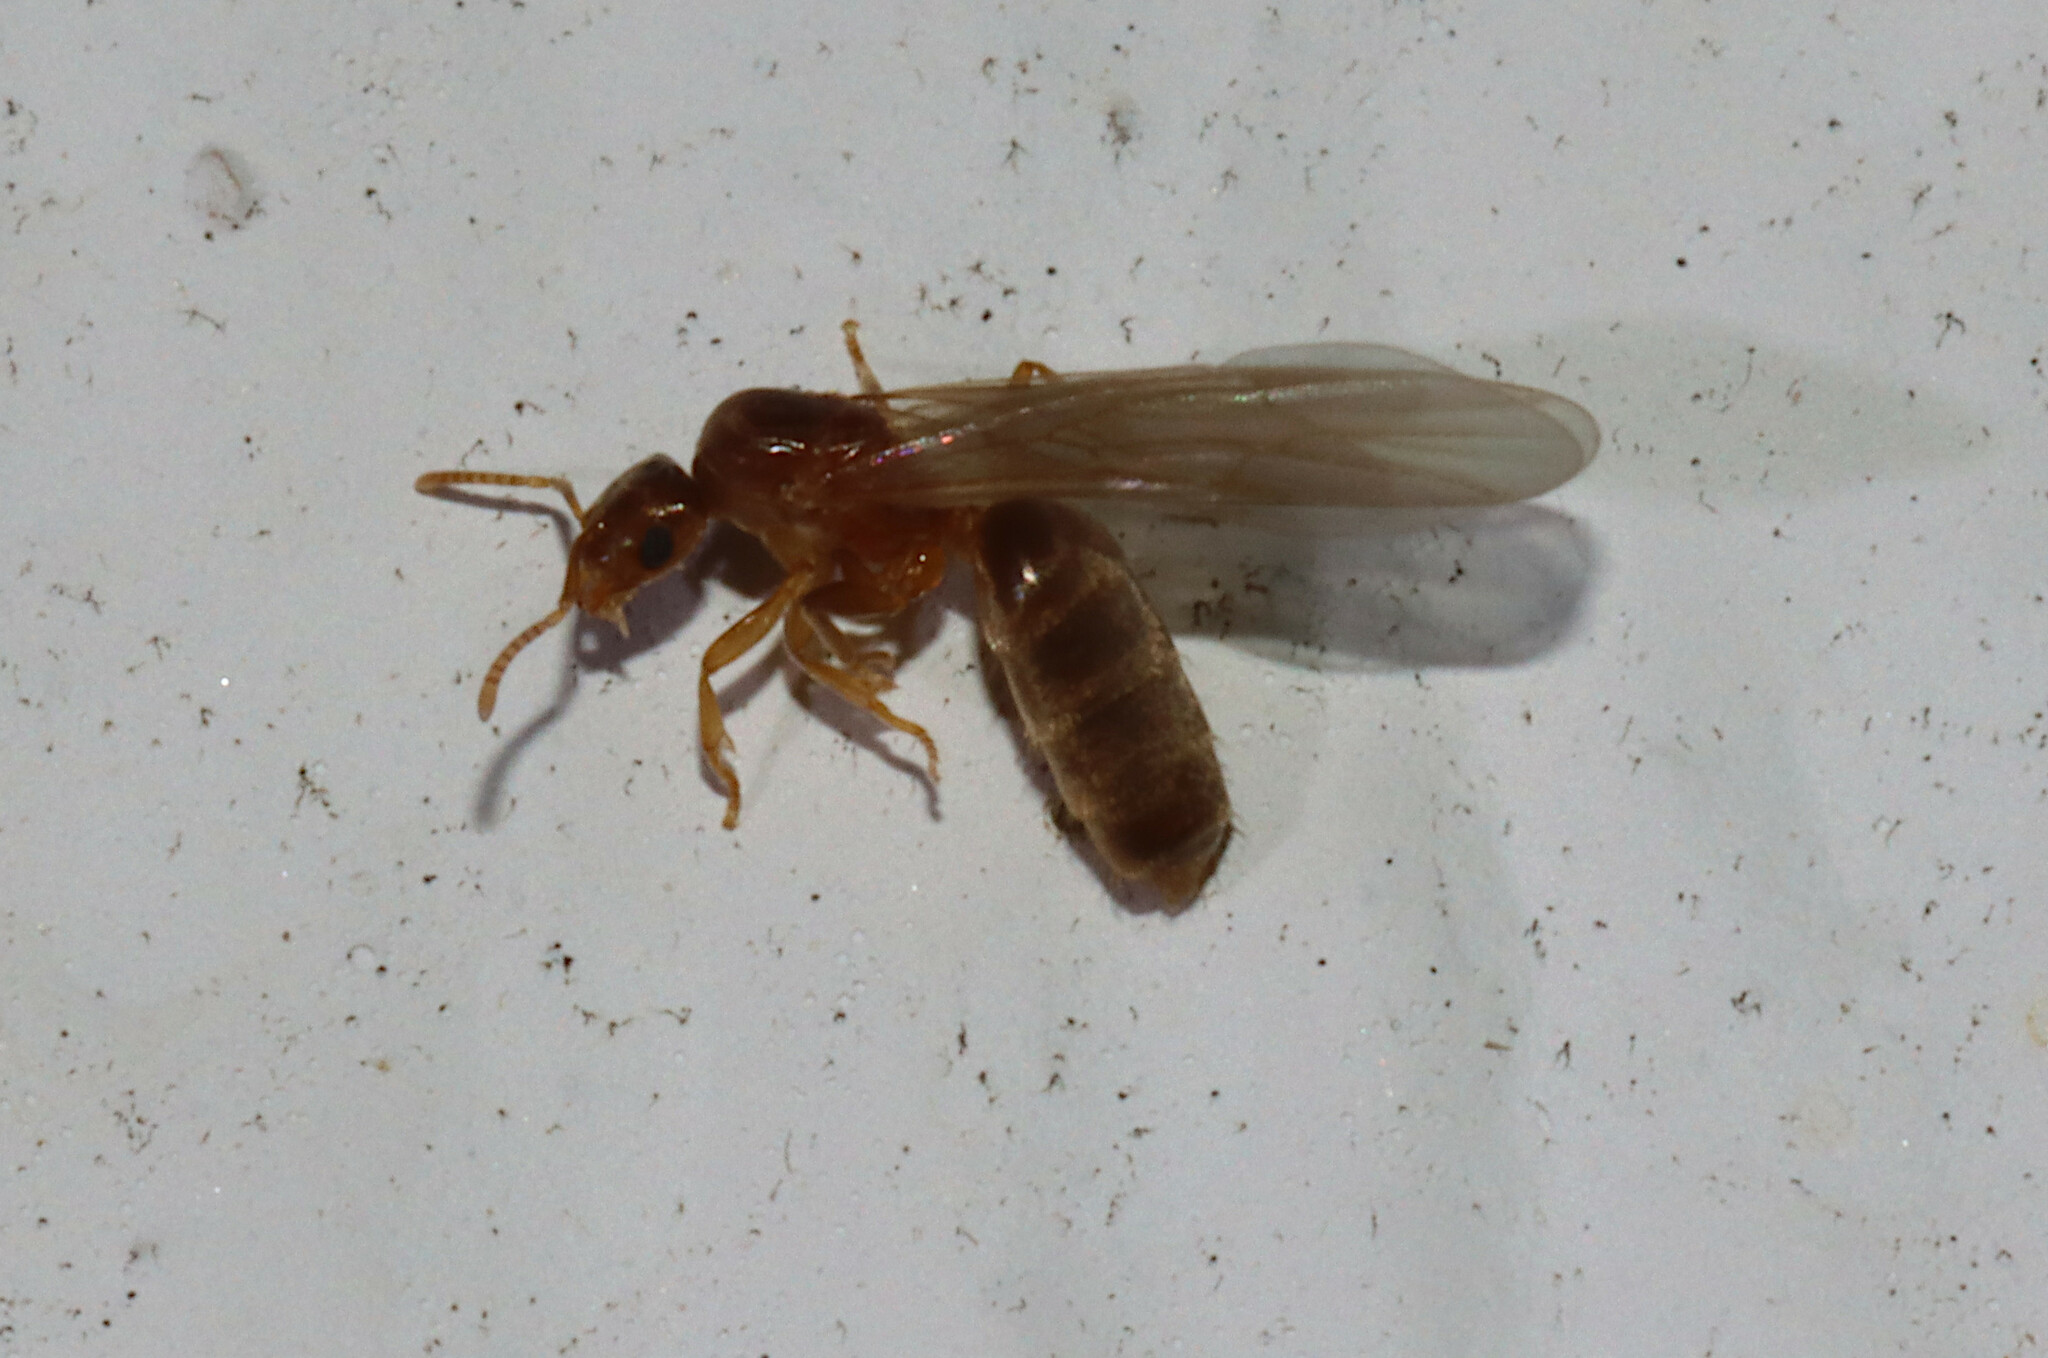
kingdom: Animalia
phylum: Arthropoda
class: Insecta
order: Hymenoptera
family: Formicidae
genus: Brachymyrmex
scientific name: Brachymyrmex depilis
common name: Hairless rover ant
